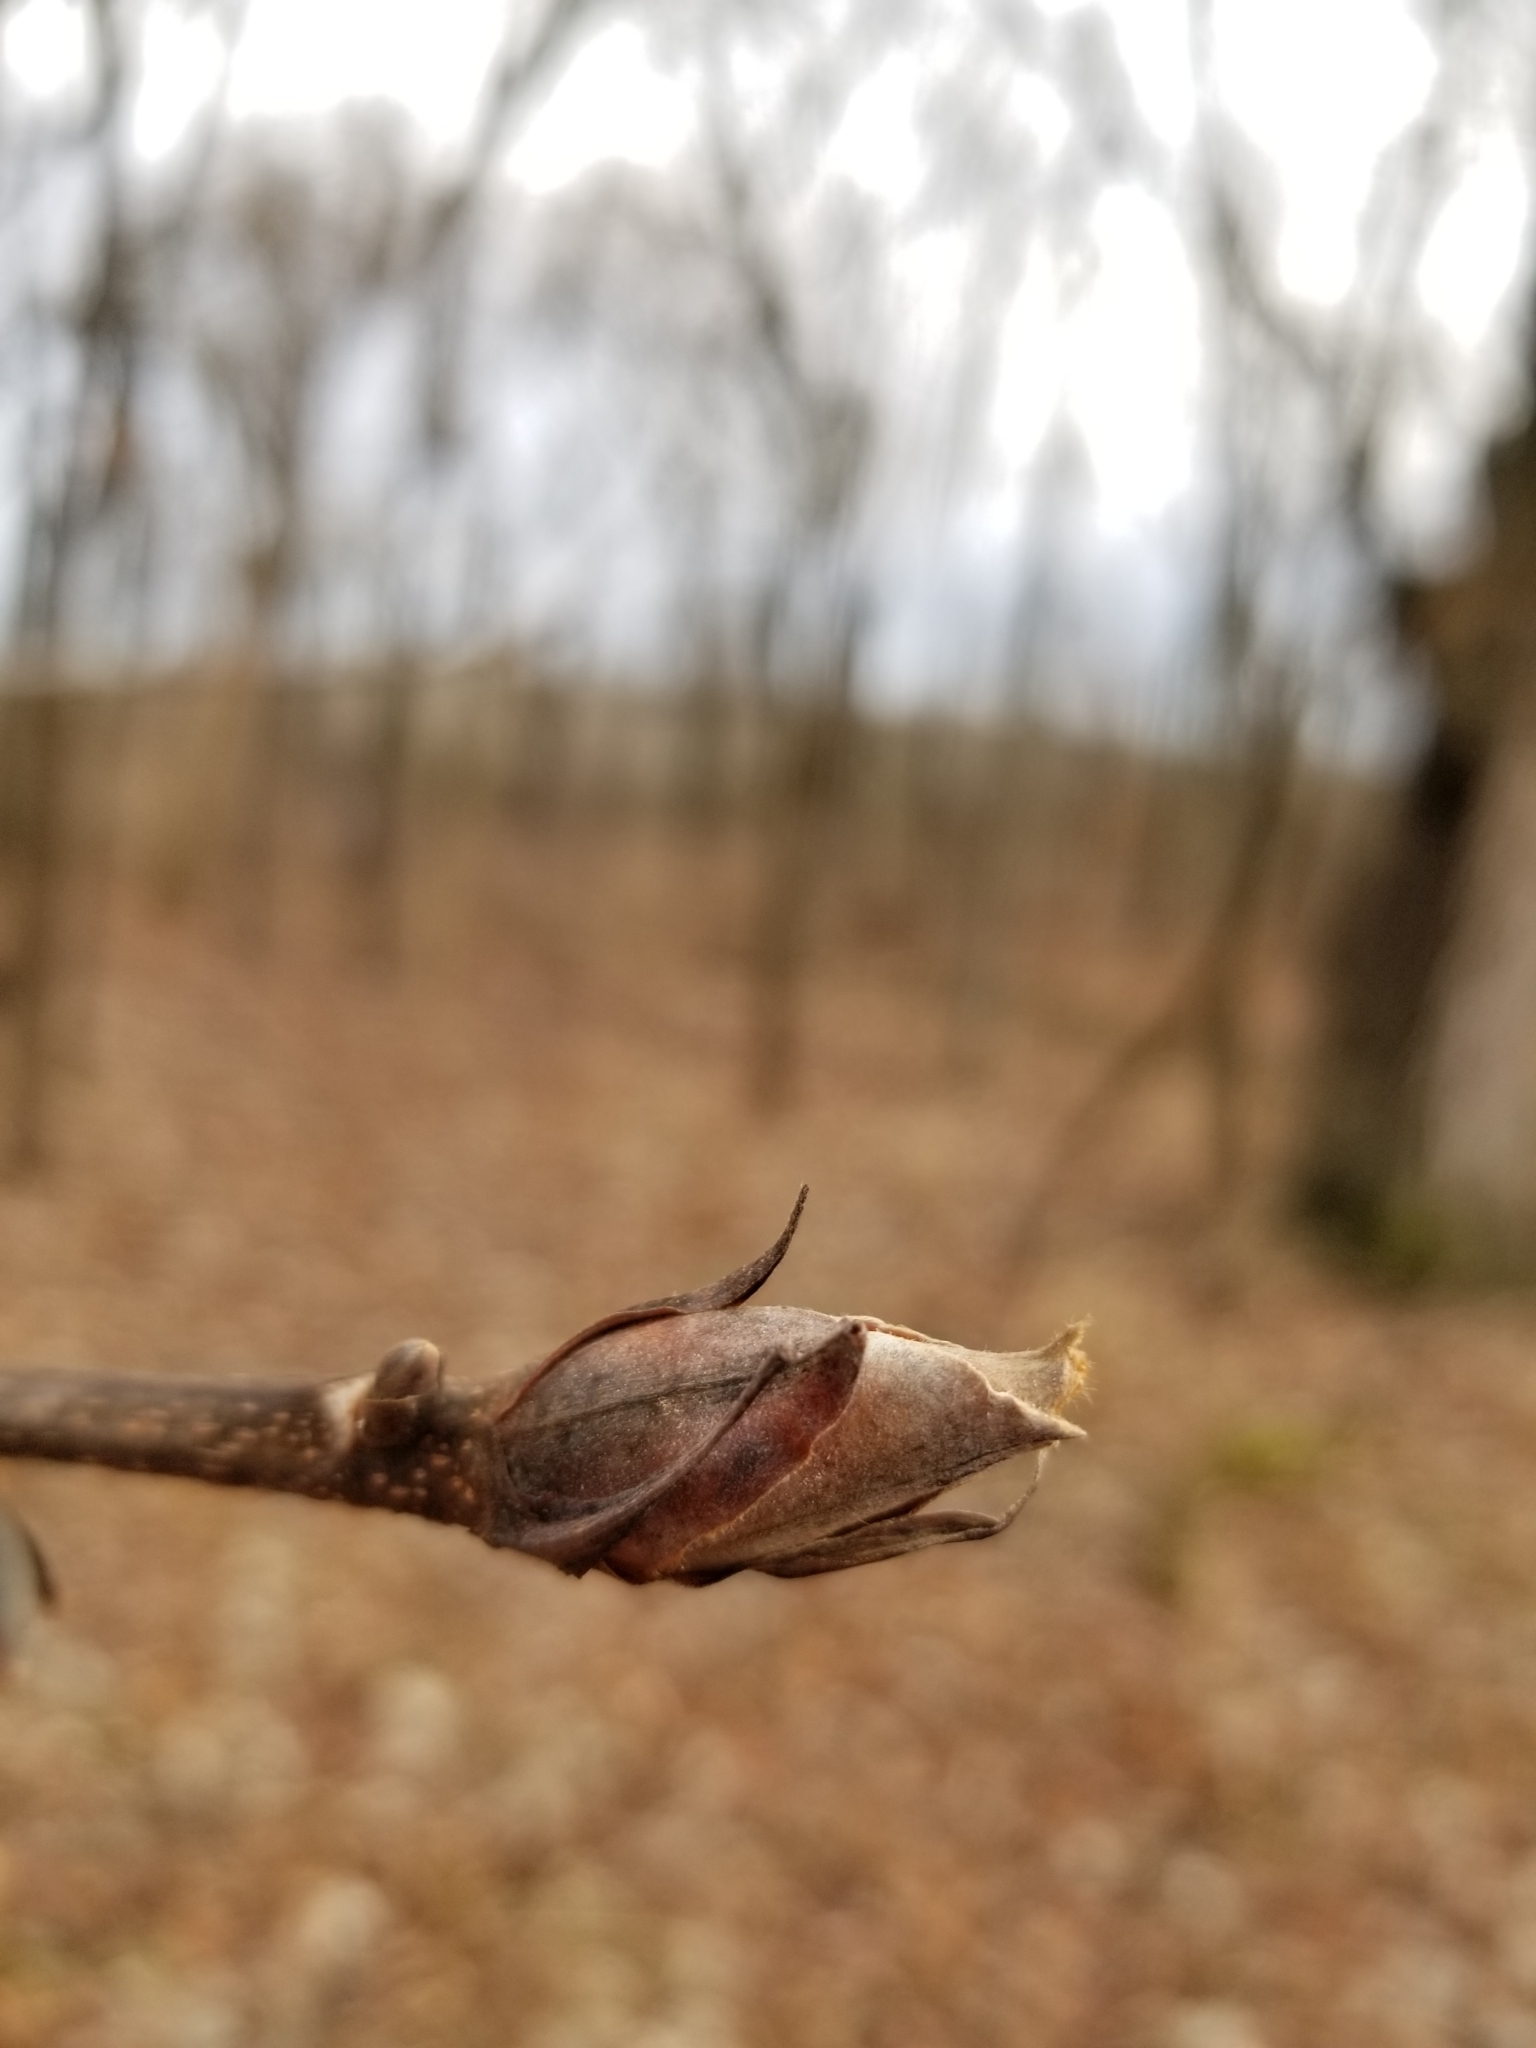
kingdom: Plantae
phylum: Tracheophyta
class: Magnoliopsida
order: Fagales
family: Juglandaceae
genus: Carya
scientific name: Carya ovata
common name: Shagbark hickory
